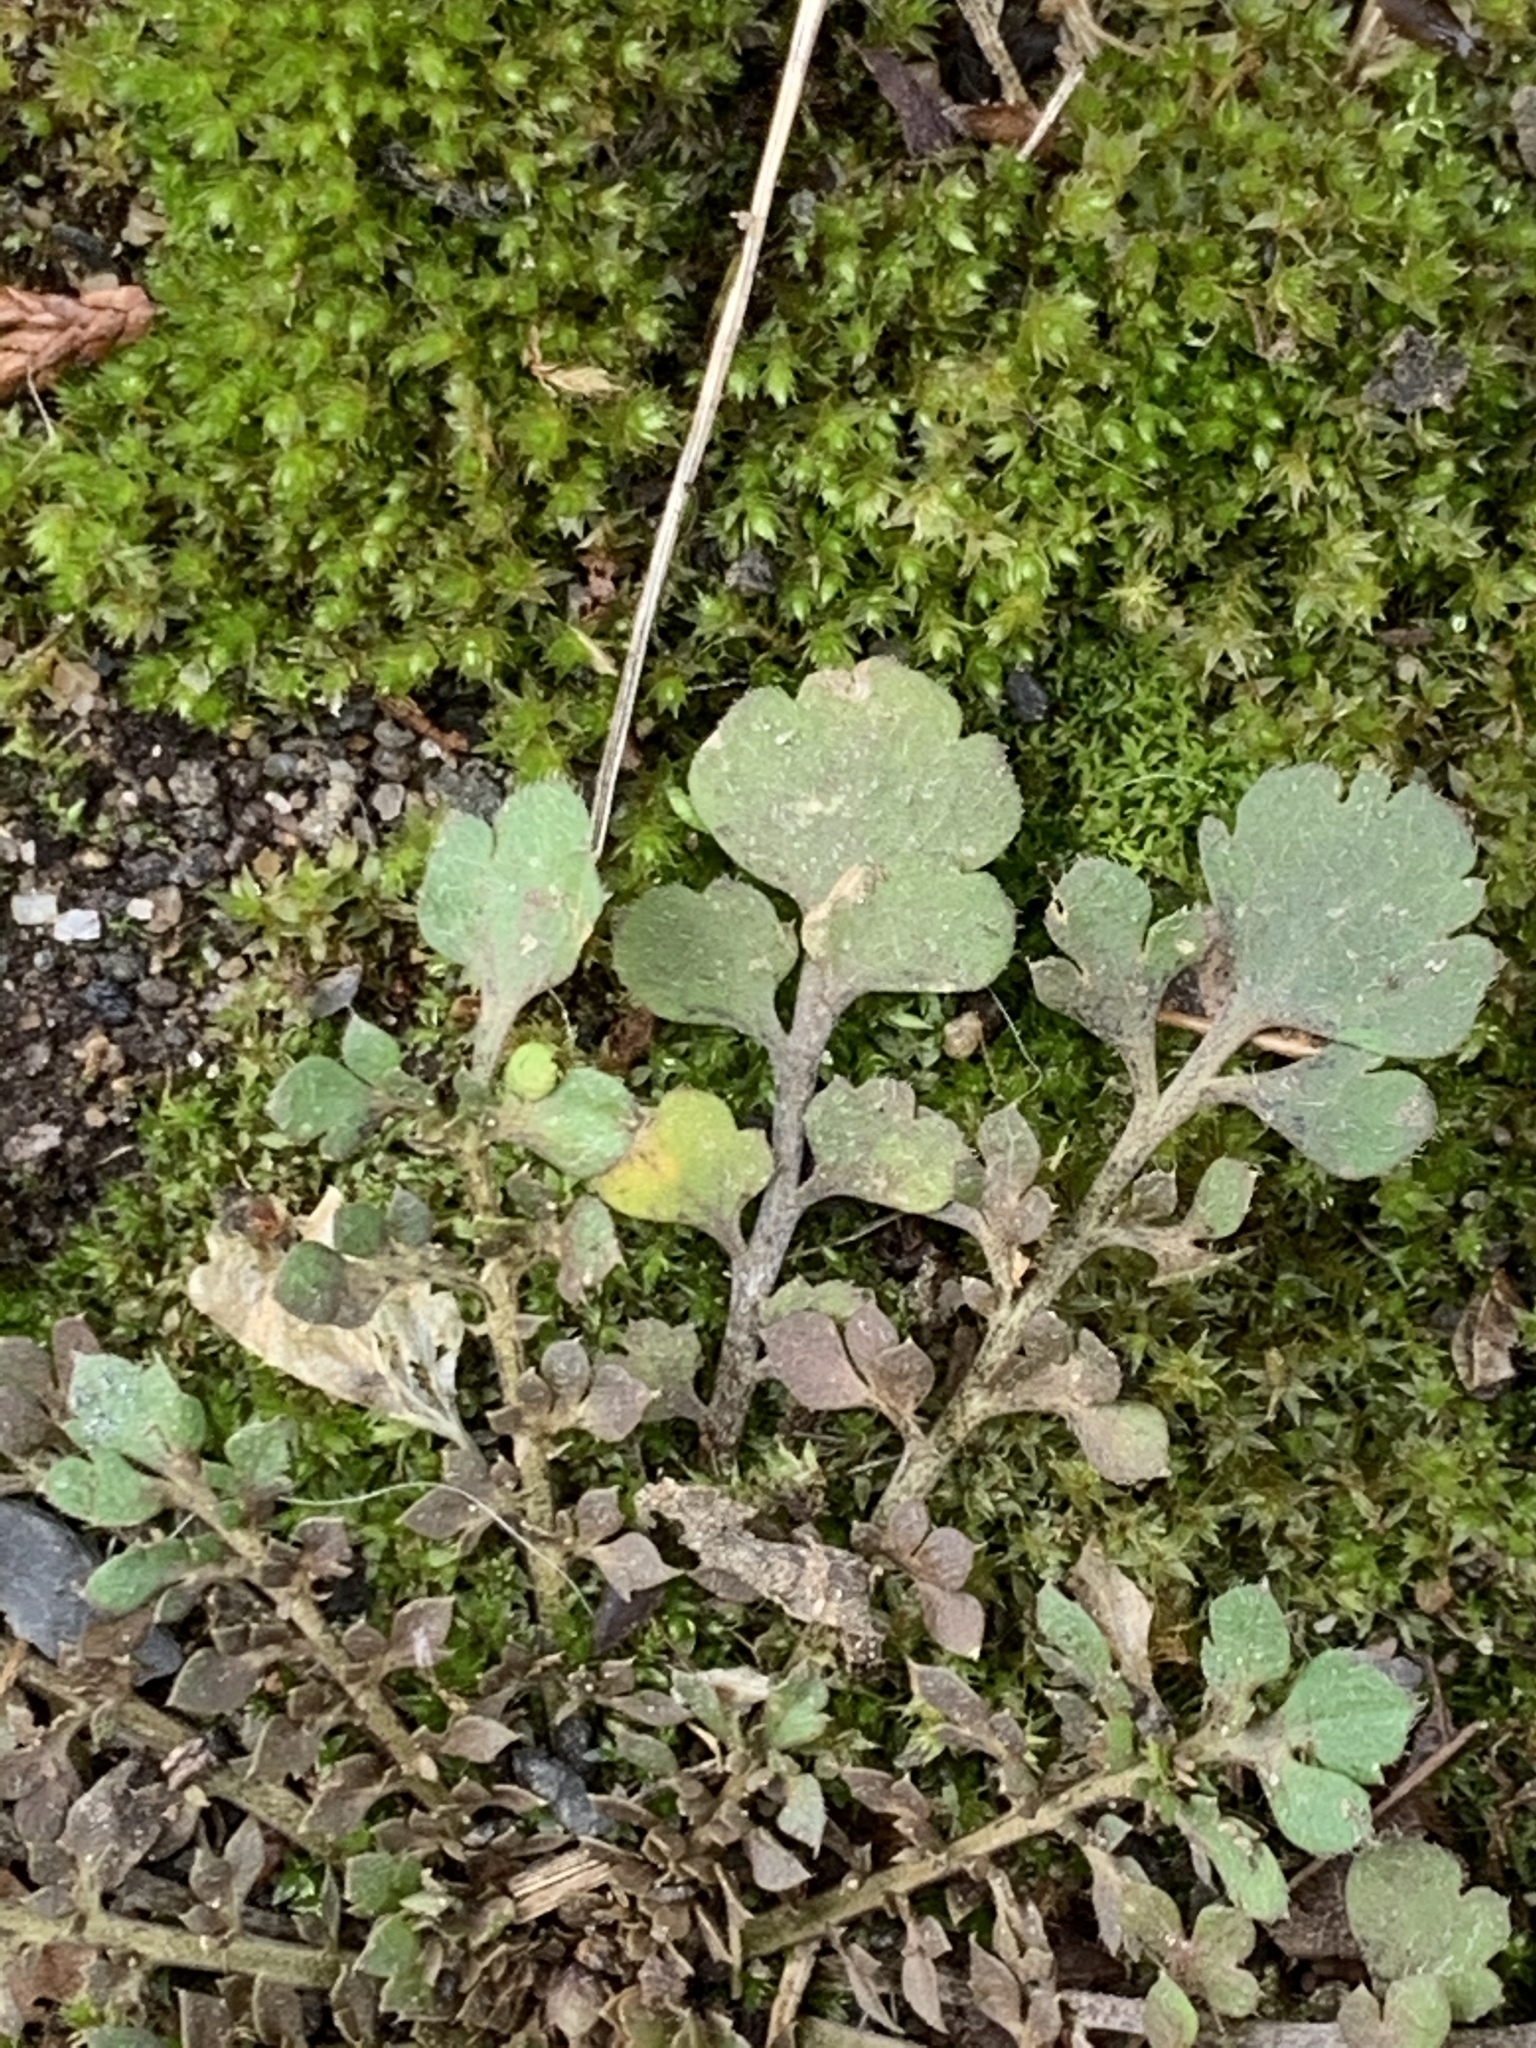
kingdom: Plantae
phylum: Tracheophyta
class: Magnoliopsida
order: Brassicales
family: Brassicaceae
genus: Lepidium
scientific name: Lepidium virginicum
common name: Least pepperwort
